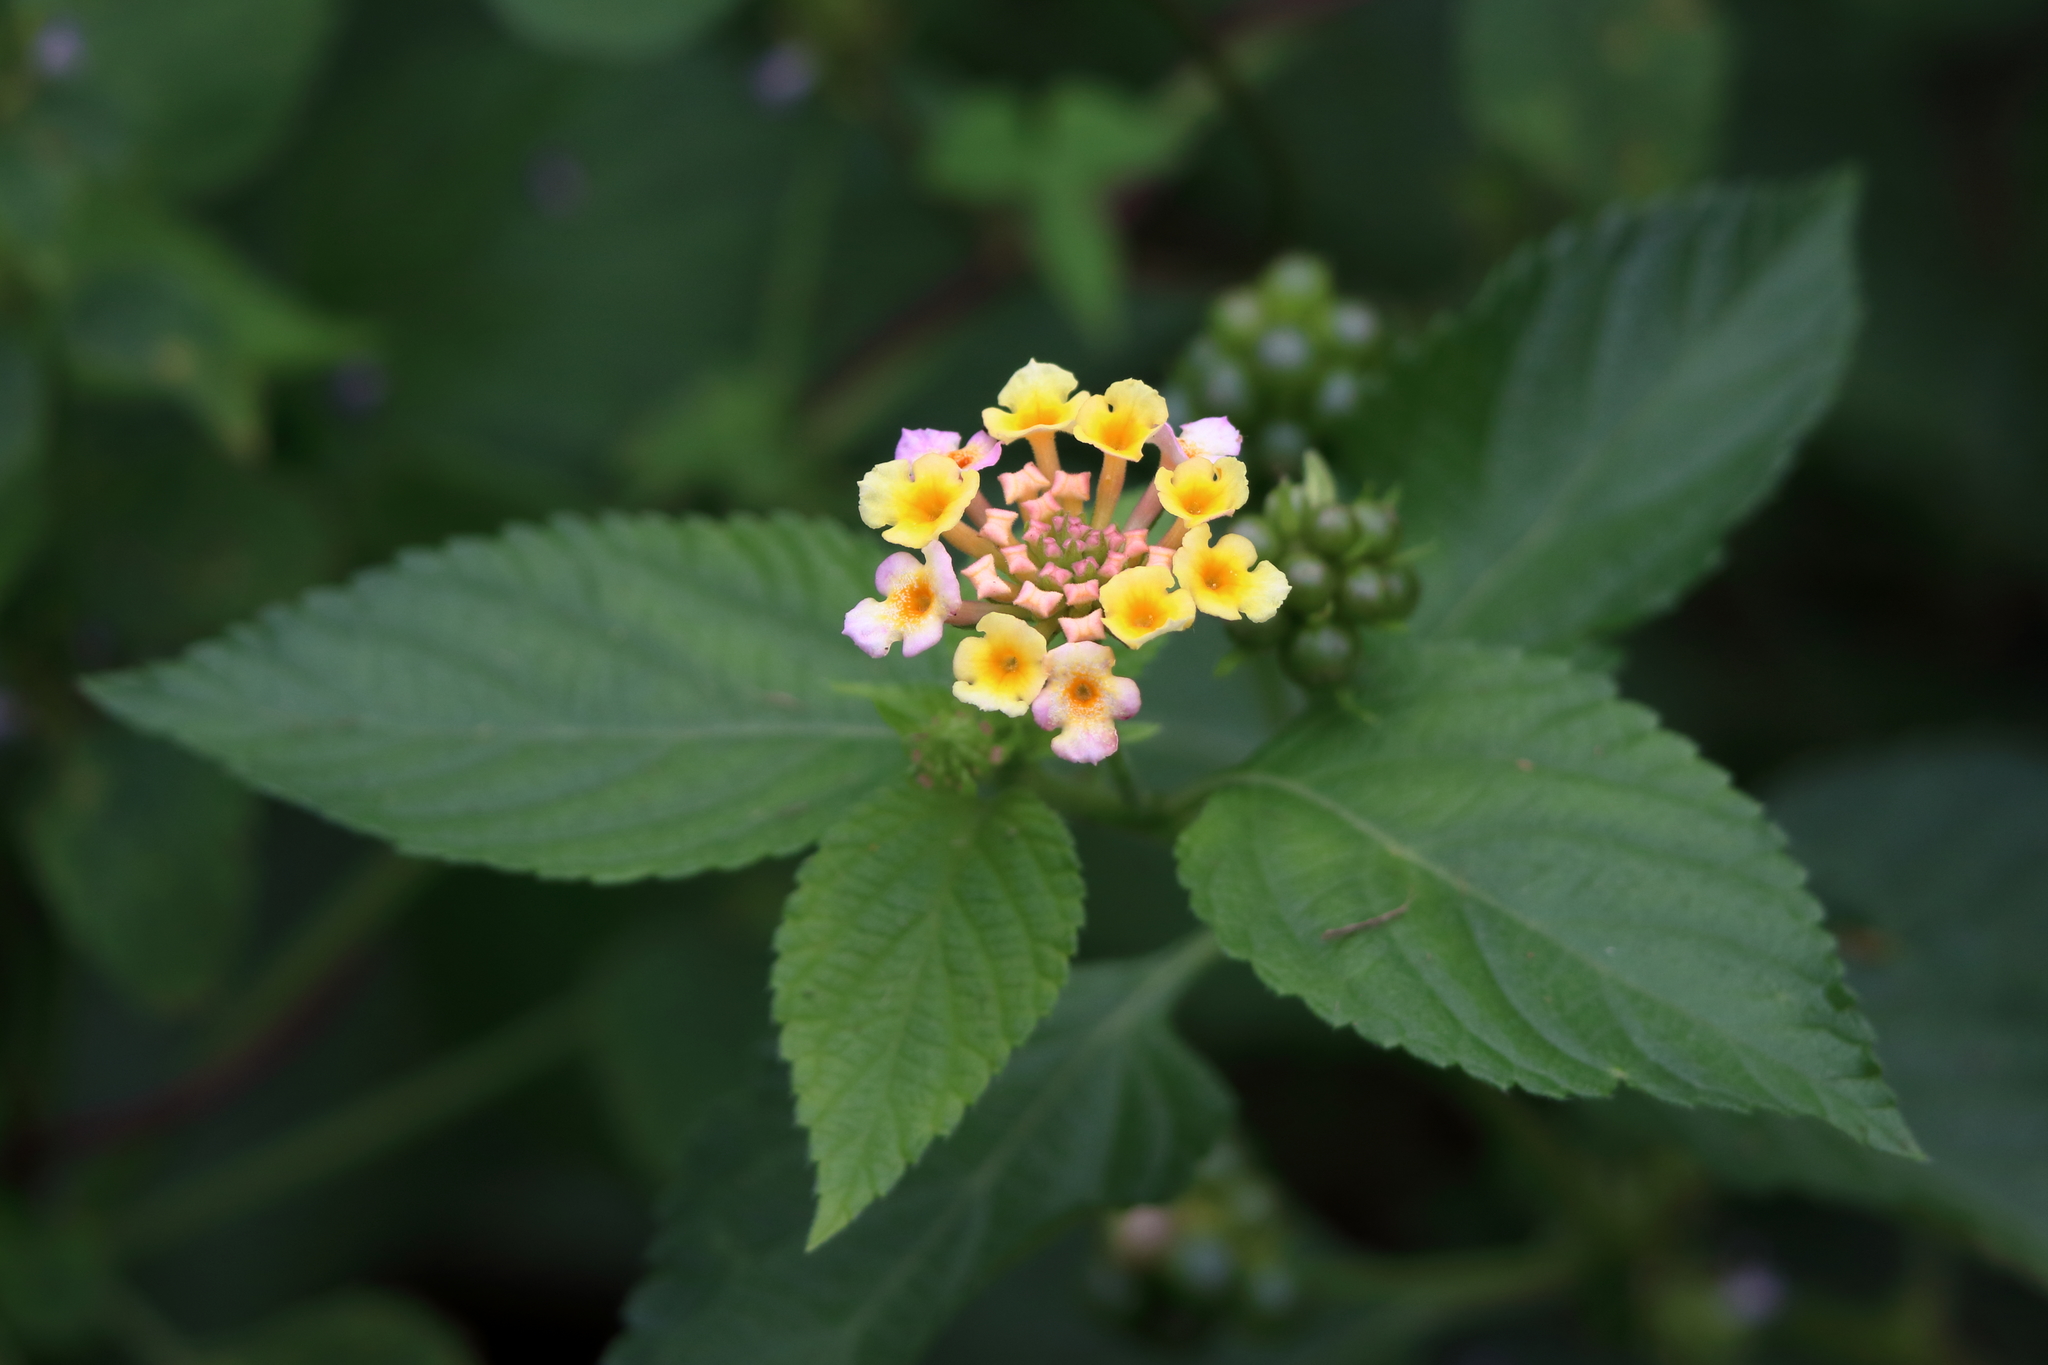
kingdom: Plantae
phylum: Tracheophyta
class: Magnoliopsida
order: Lamiales
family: Verbenaceae
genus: Lantana
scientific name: Lantana strigocamara
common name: Lantana
